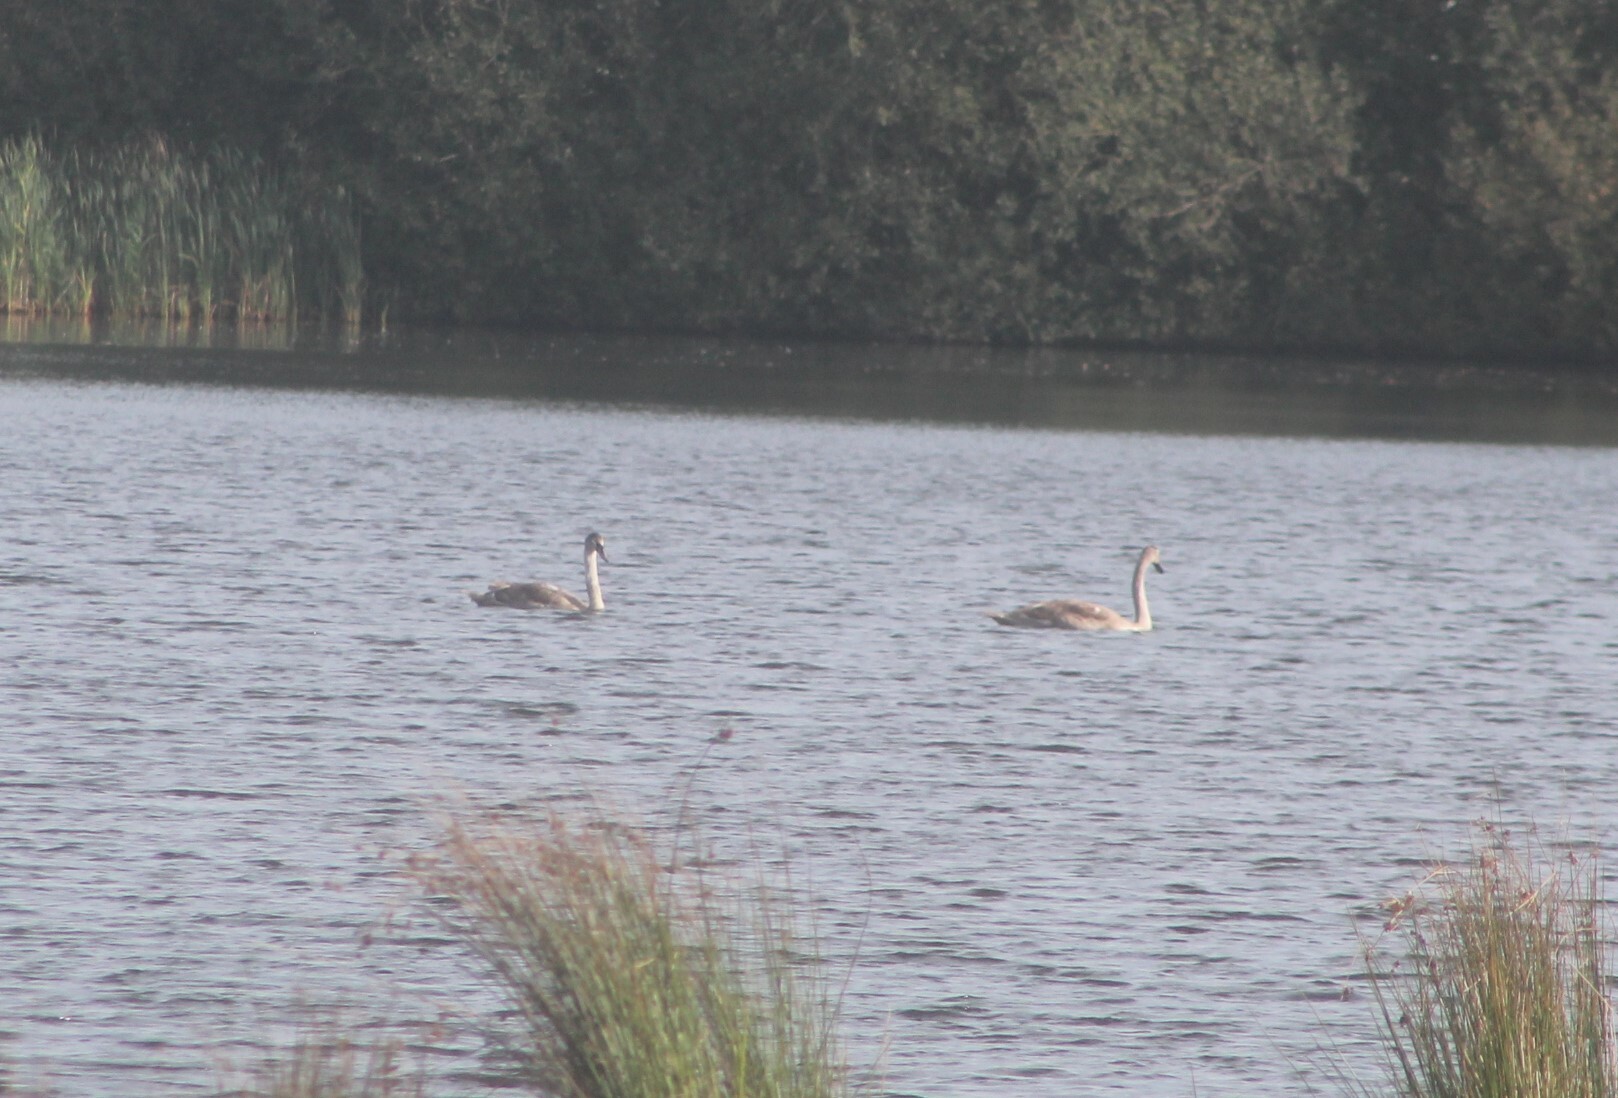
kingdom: Animalia
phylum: Chordata
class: Aves
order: Anseriformes
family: Anatidae
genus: Cygnus
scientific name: Cygnus olor
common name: Mute swan
